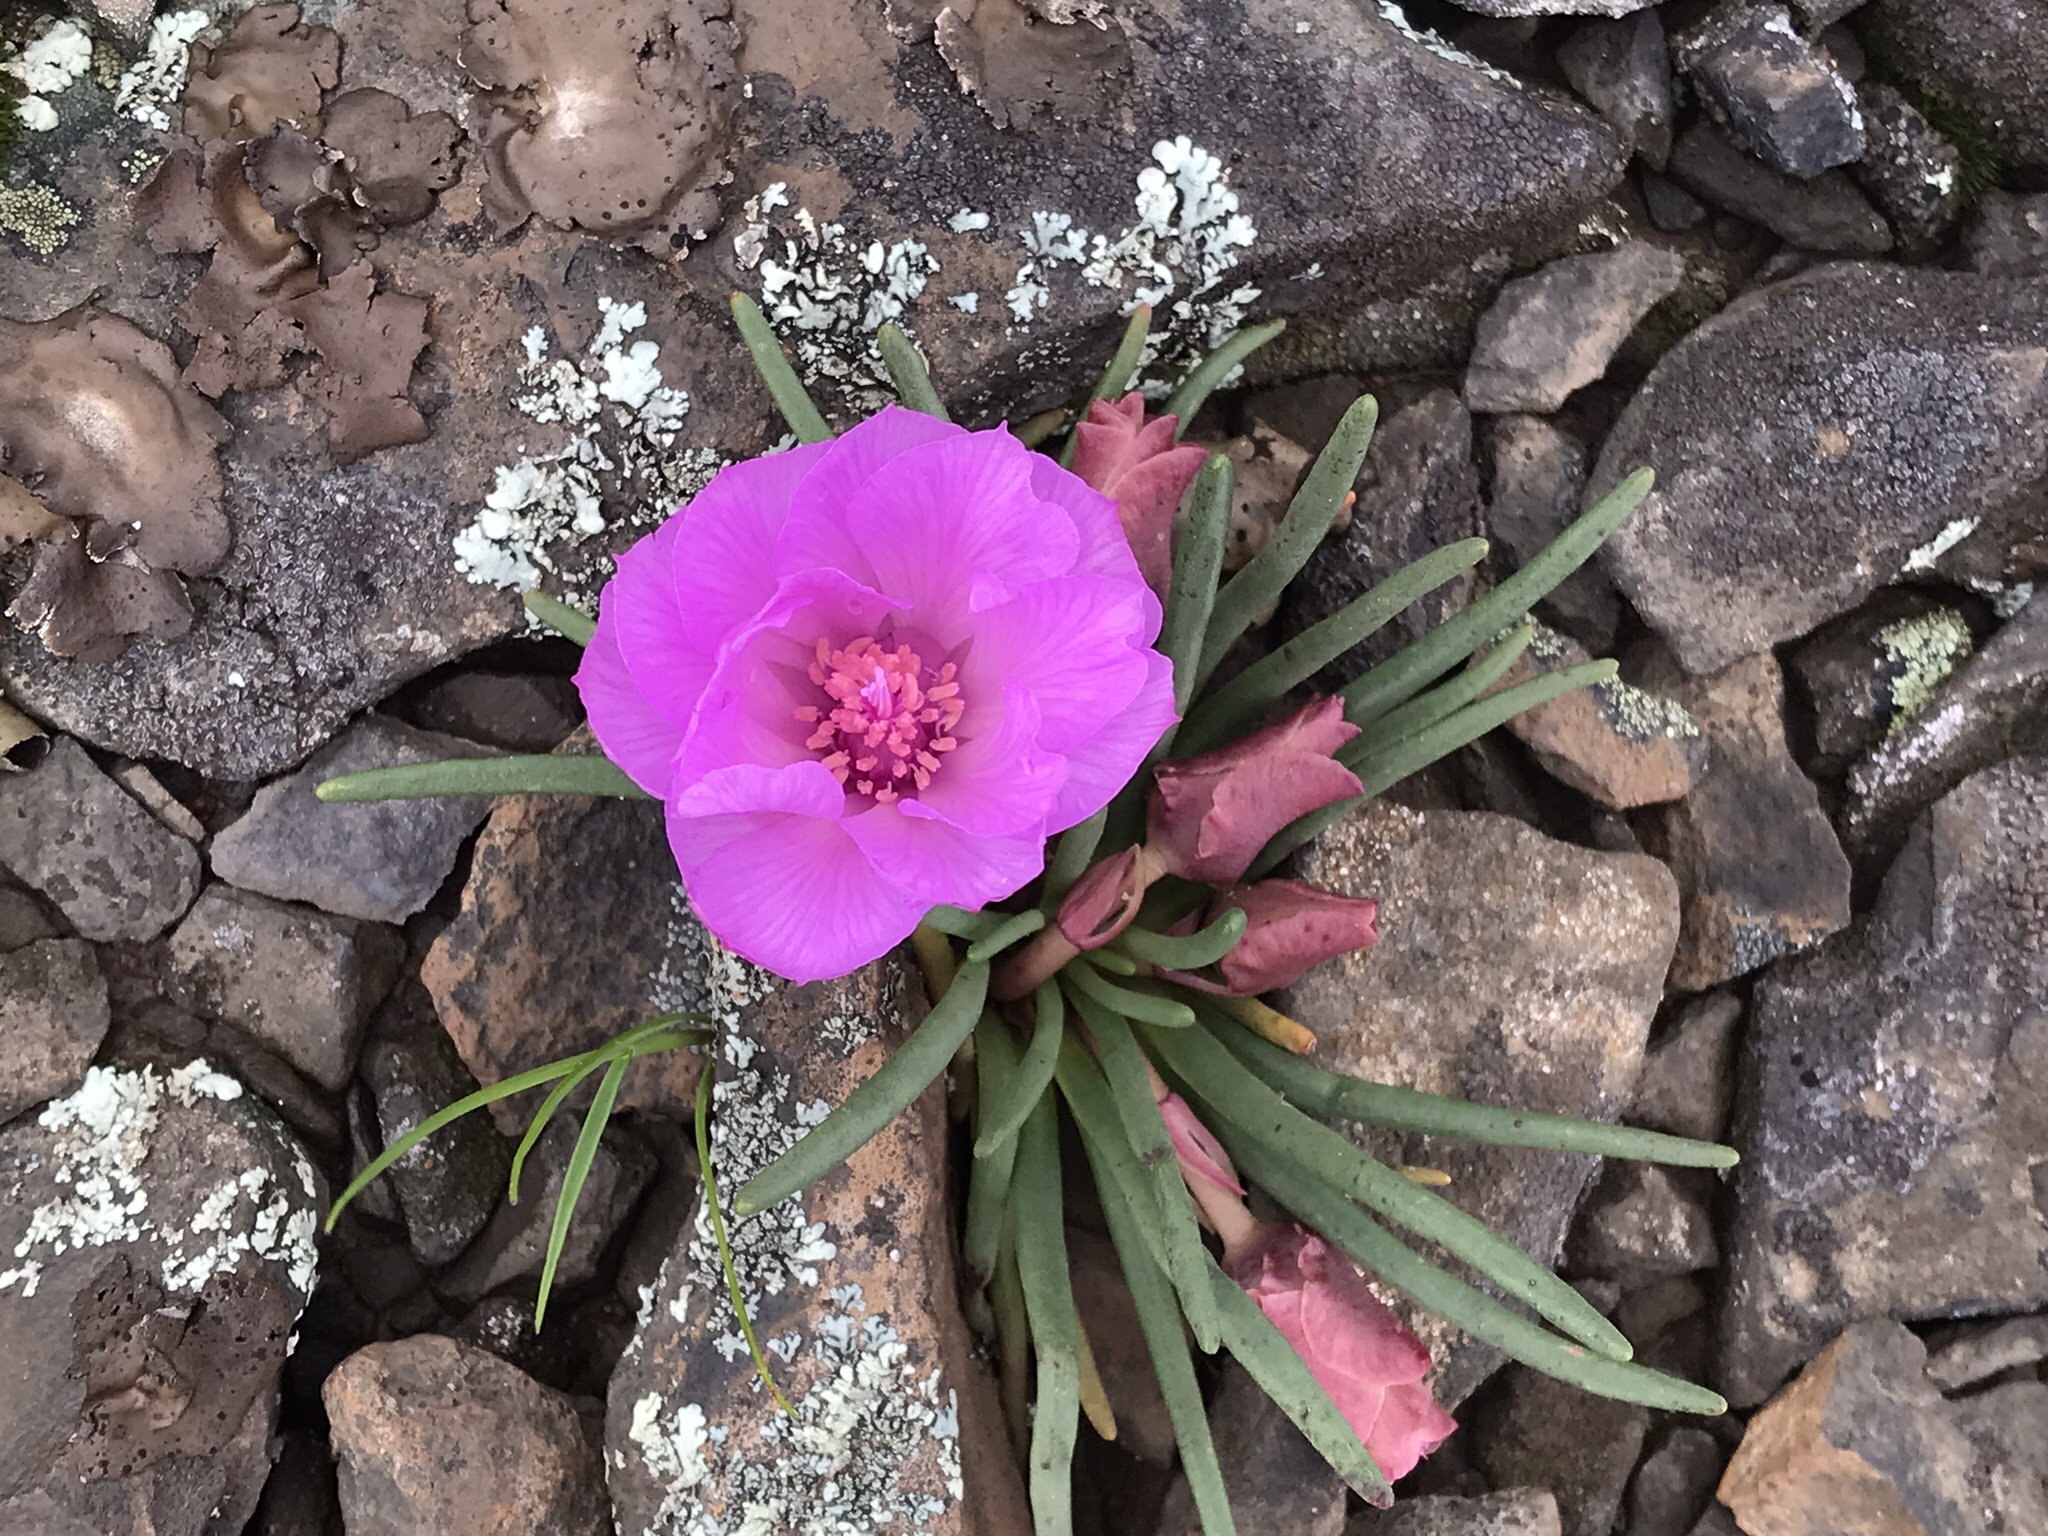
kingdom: Plantae
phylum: Tracheophyta
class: Magnoliopsida
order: Caryophyllales
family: Montiaceae
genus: Lewisia
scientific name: Lewisia rediviva
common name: Bitter-root
